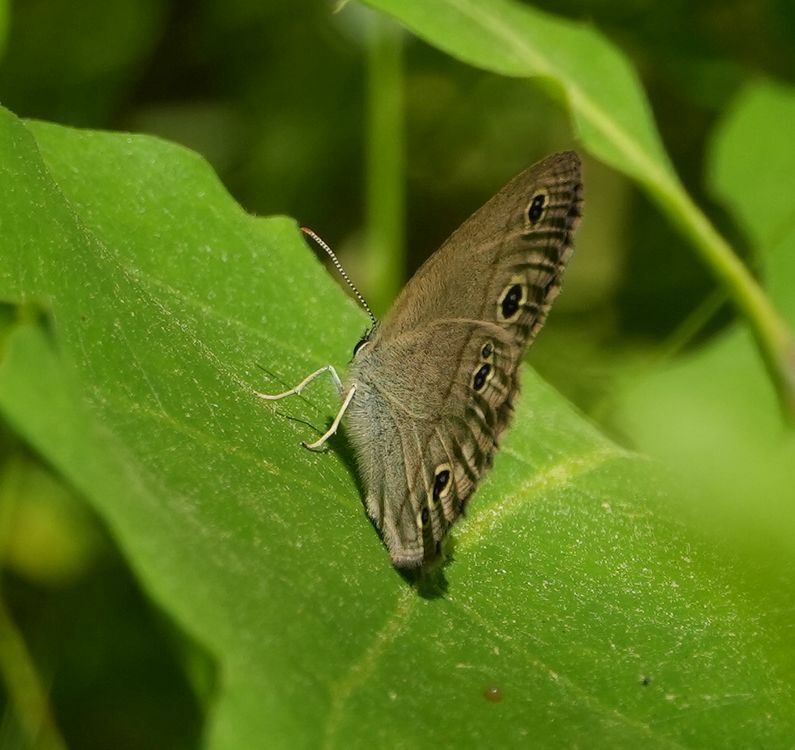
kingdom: Animalia
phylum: Arthropoda
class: Insecta
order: Lepidoptera
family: Nymphalidae
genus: Euptychia
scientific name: Euptychia cymela
